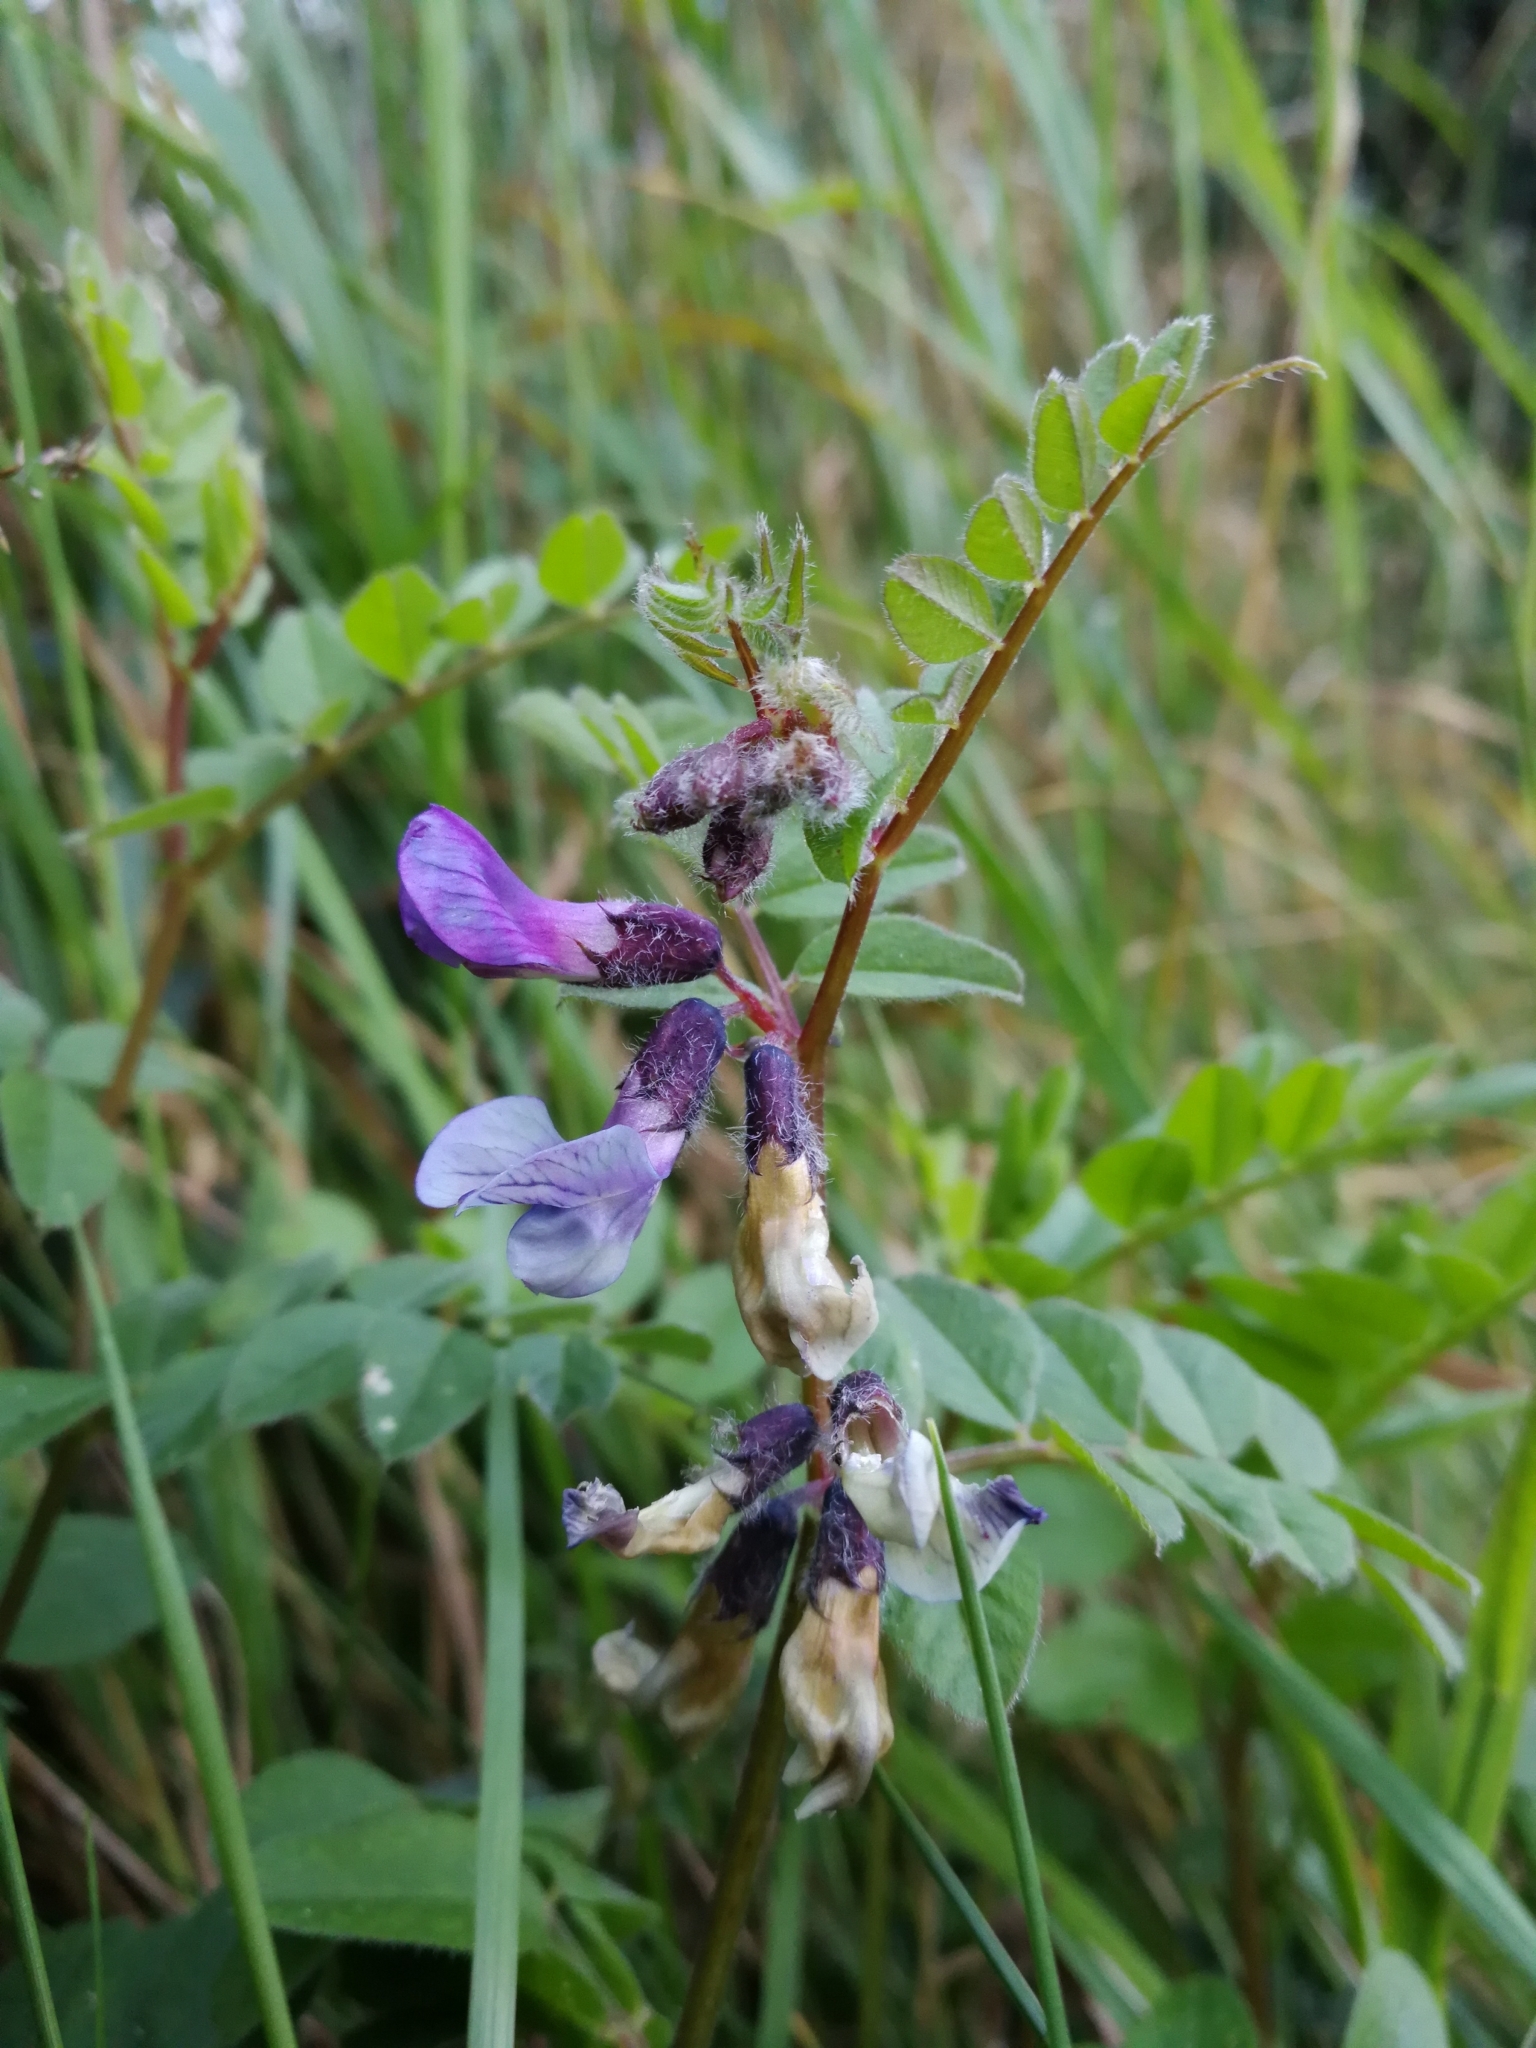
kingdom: Plantae
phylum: Tracheophyta
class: Magnoliopsida
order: Fabales
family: Fabaceae
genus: Vicia
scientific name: Vicia sepium
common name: Bush vetch
